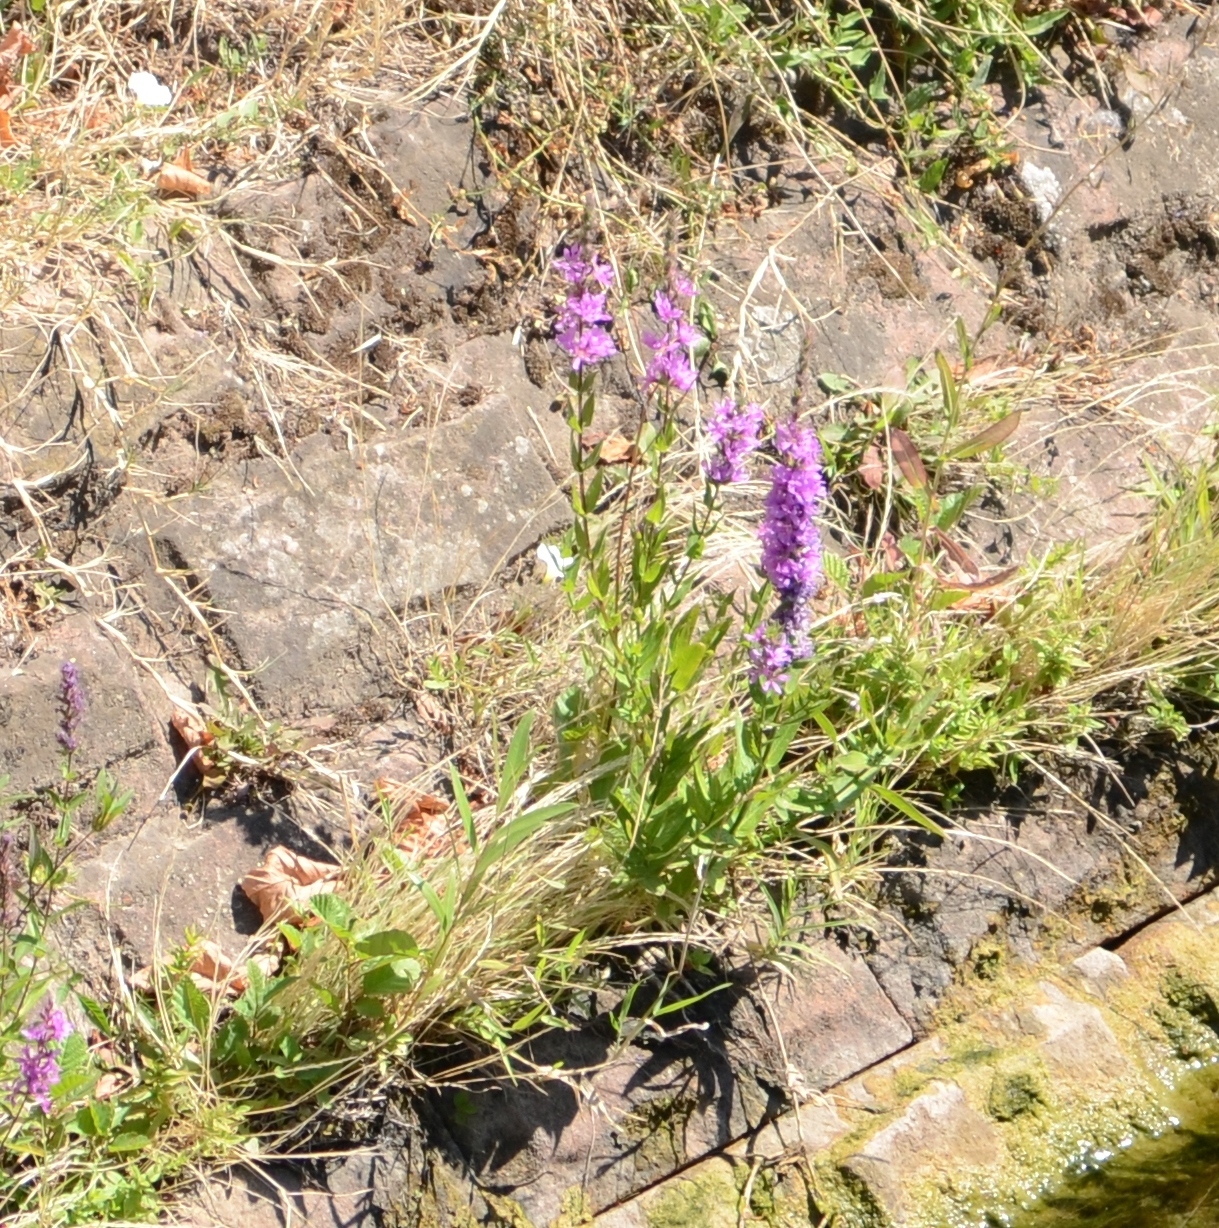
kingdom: Plantae
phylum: Tracheophyta
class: Magnoliopsida
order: Myrtales
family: Lythraceae
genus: Lythrum
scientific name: Lythrum salicaria
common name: Purple loosestrife
